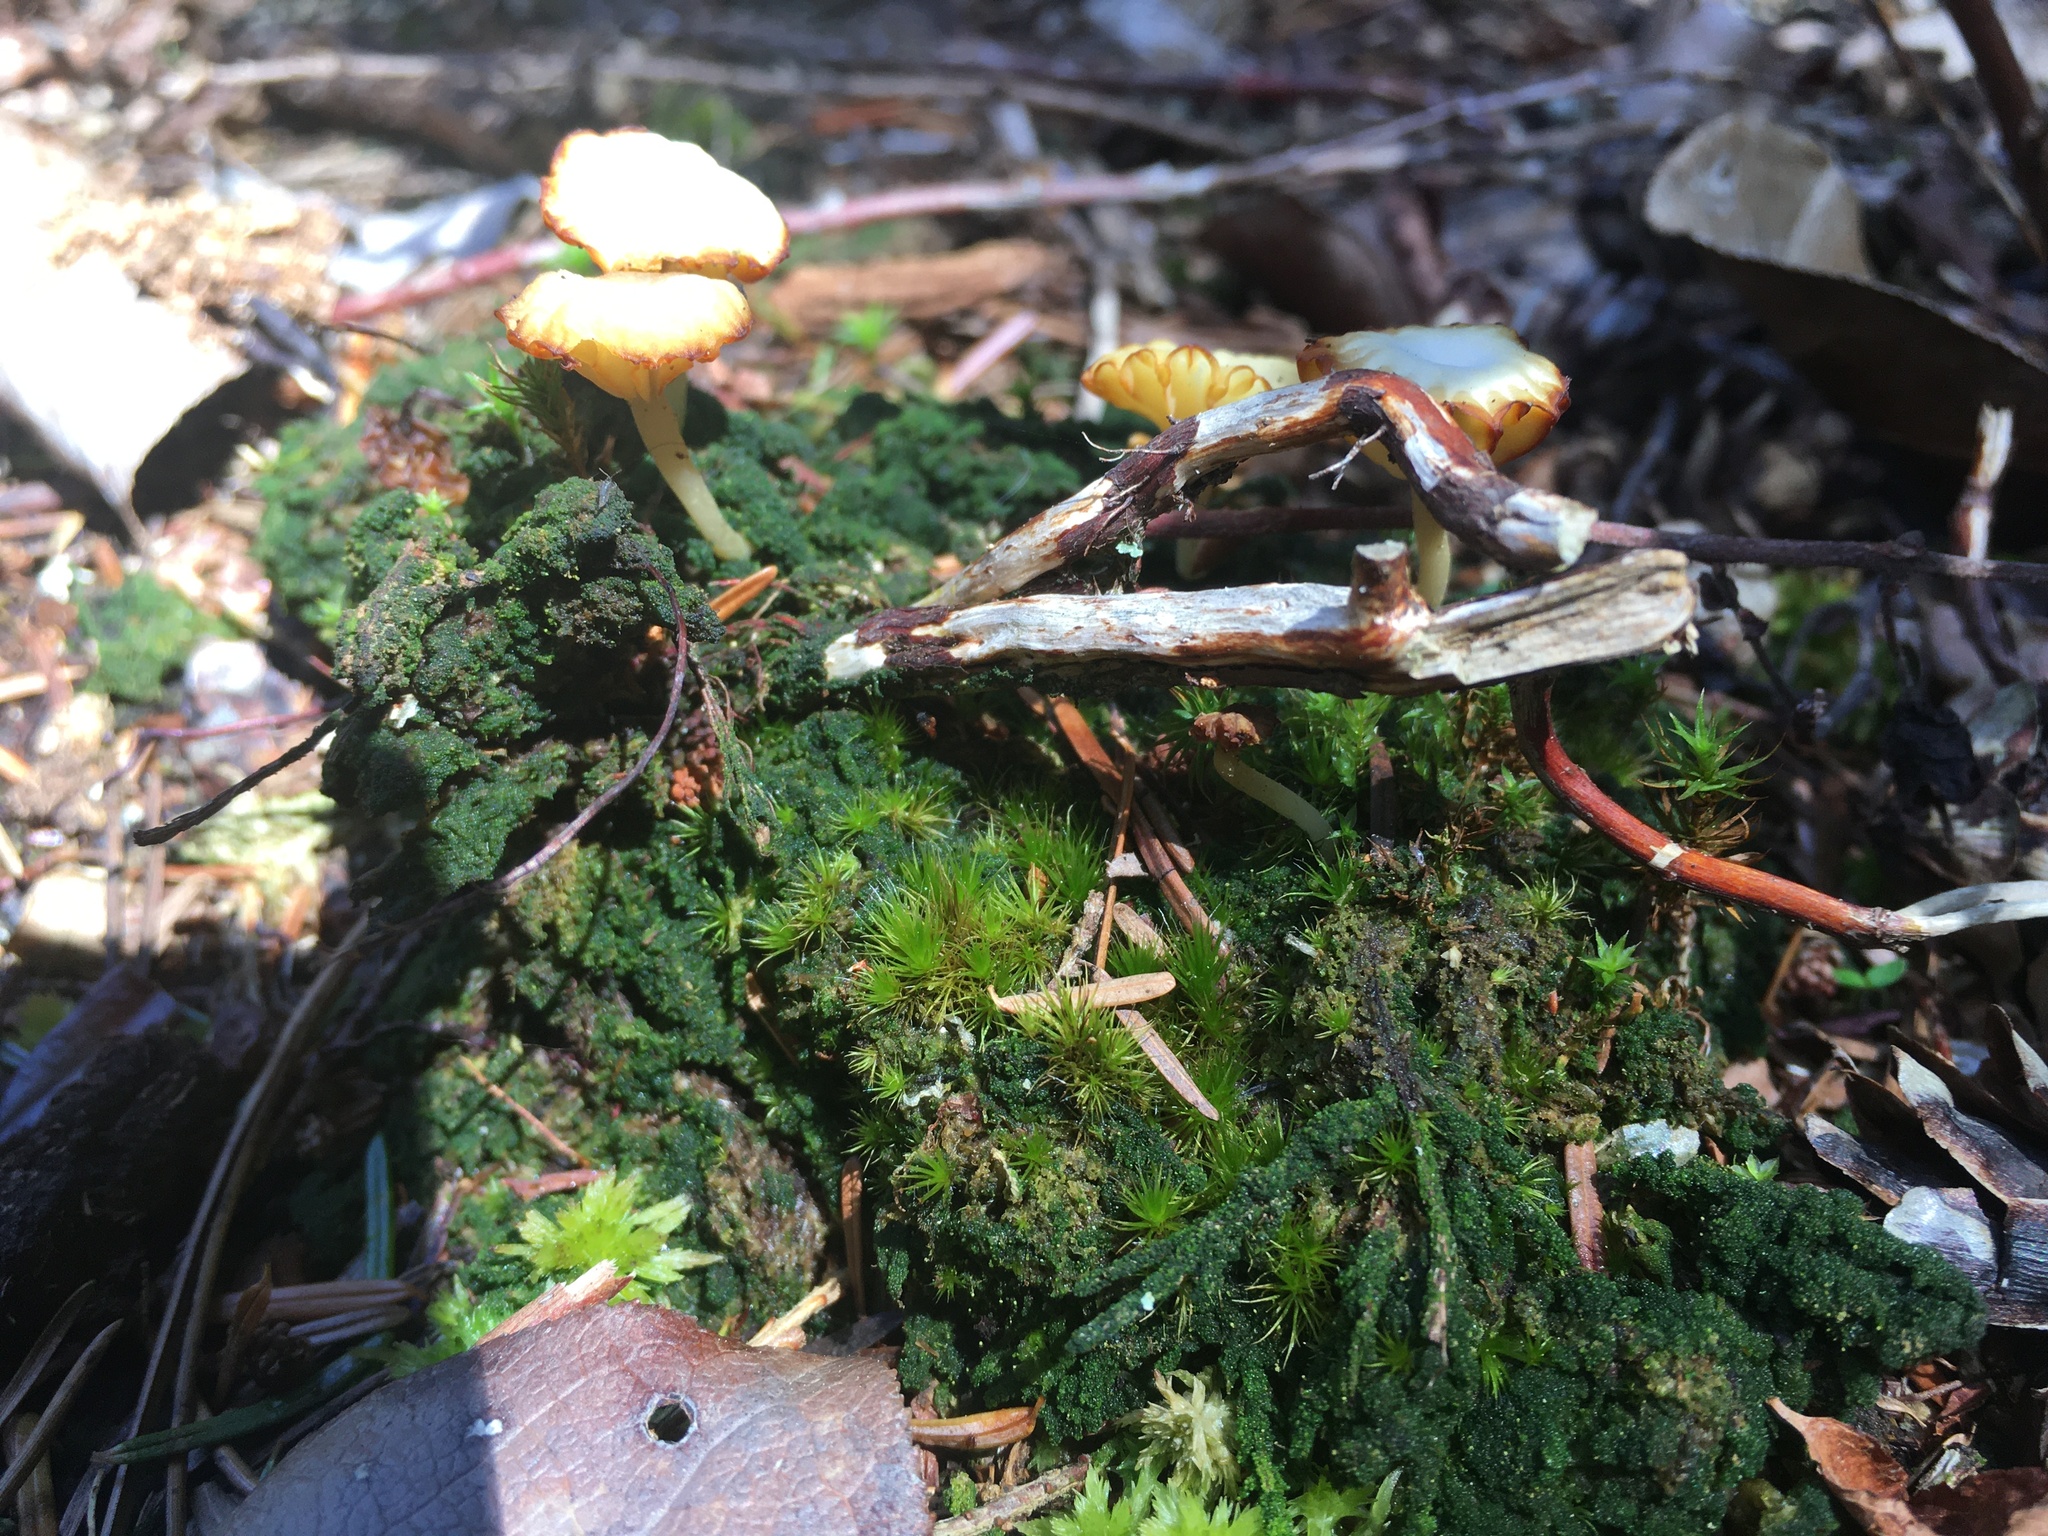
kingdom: Fungi
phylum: Basidiomycota
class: Agaricomycetes
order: Agaricales
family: Hygrophoraceae
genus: Lichenomphalia
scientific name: Lichenomphalia
